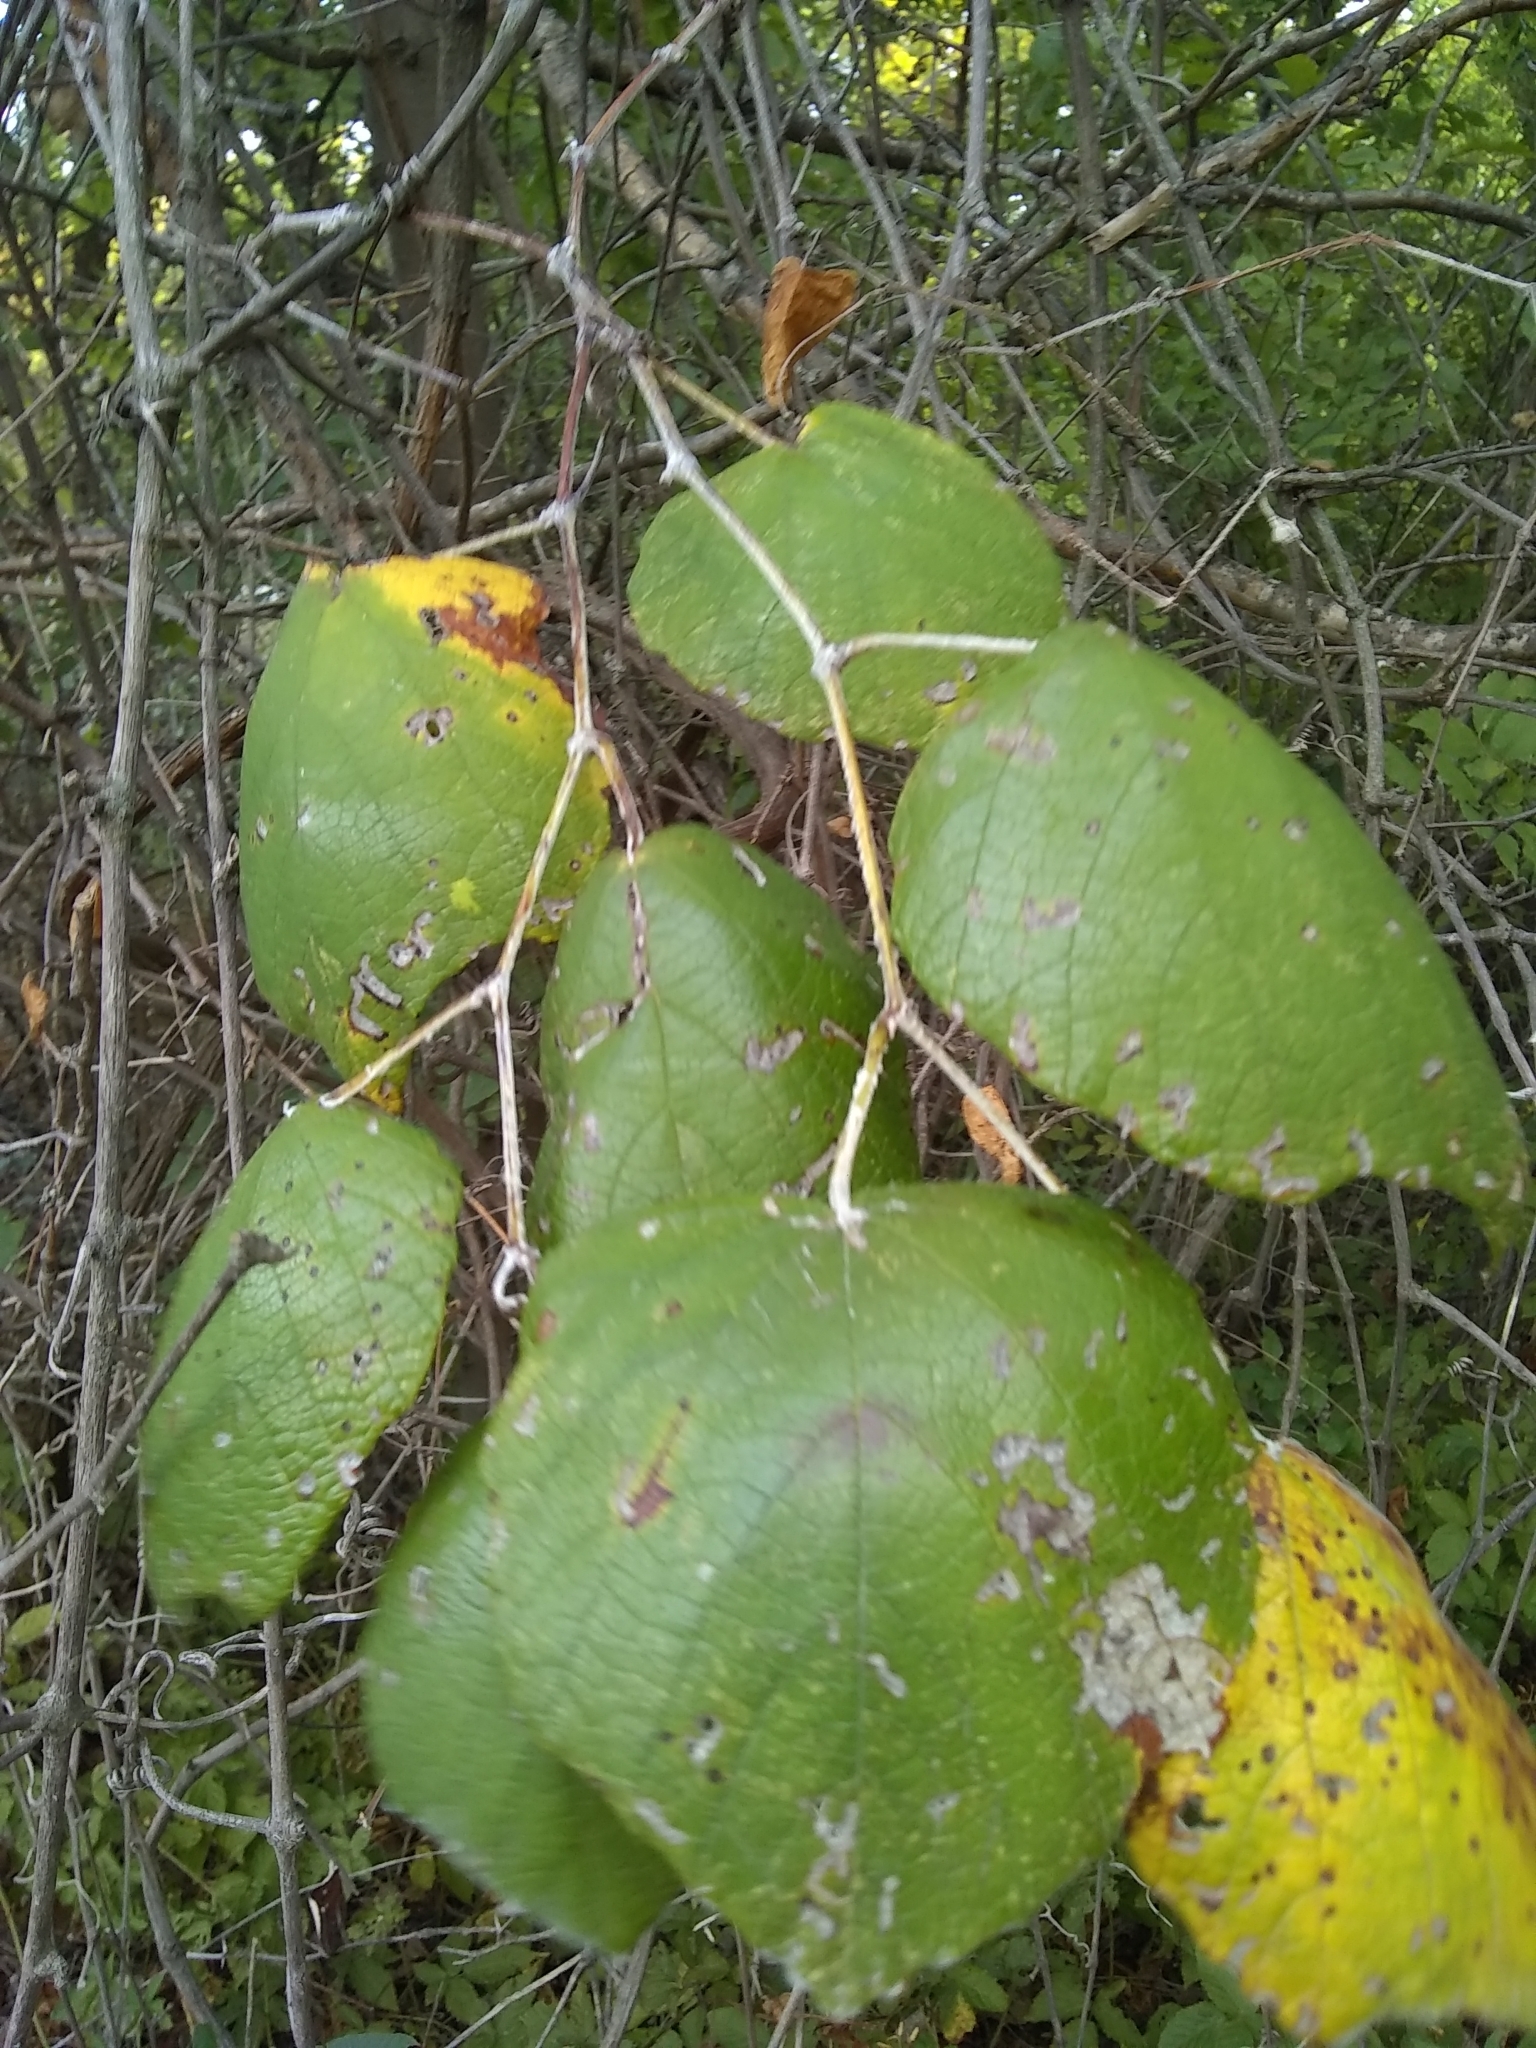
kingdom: Plantae
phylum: Tracheophyta
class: Magnoliopsida
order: Vitales
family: Vitaceae
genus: Vitis
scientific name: Vitis mustangensis
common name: Mustang grape
